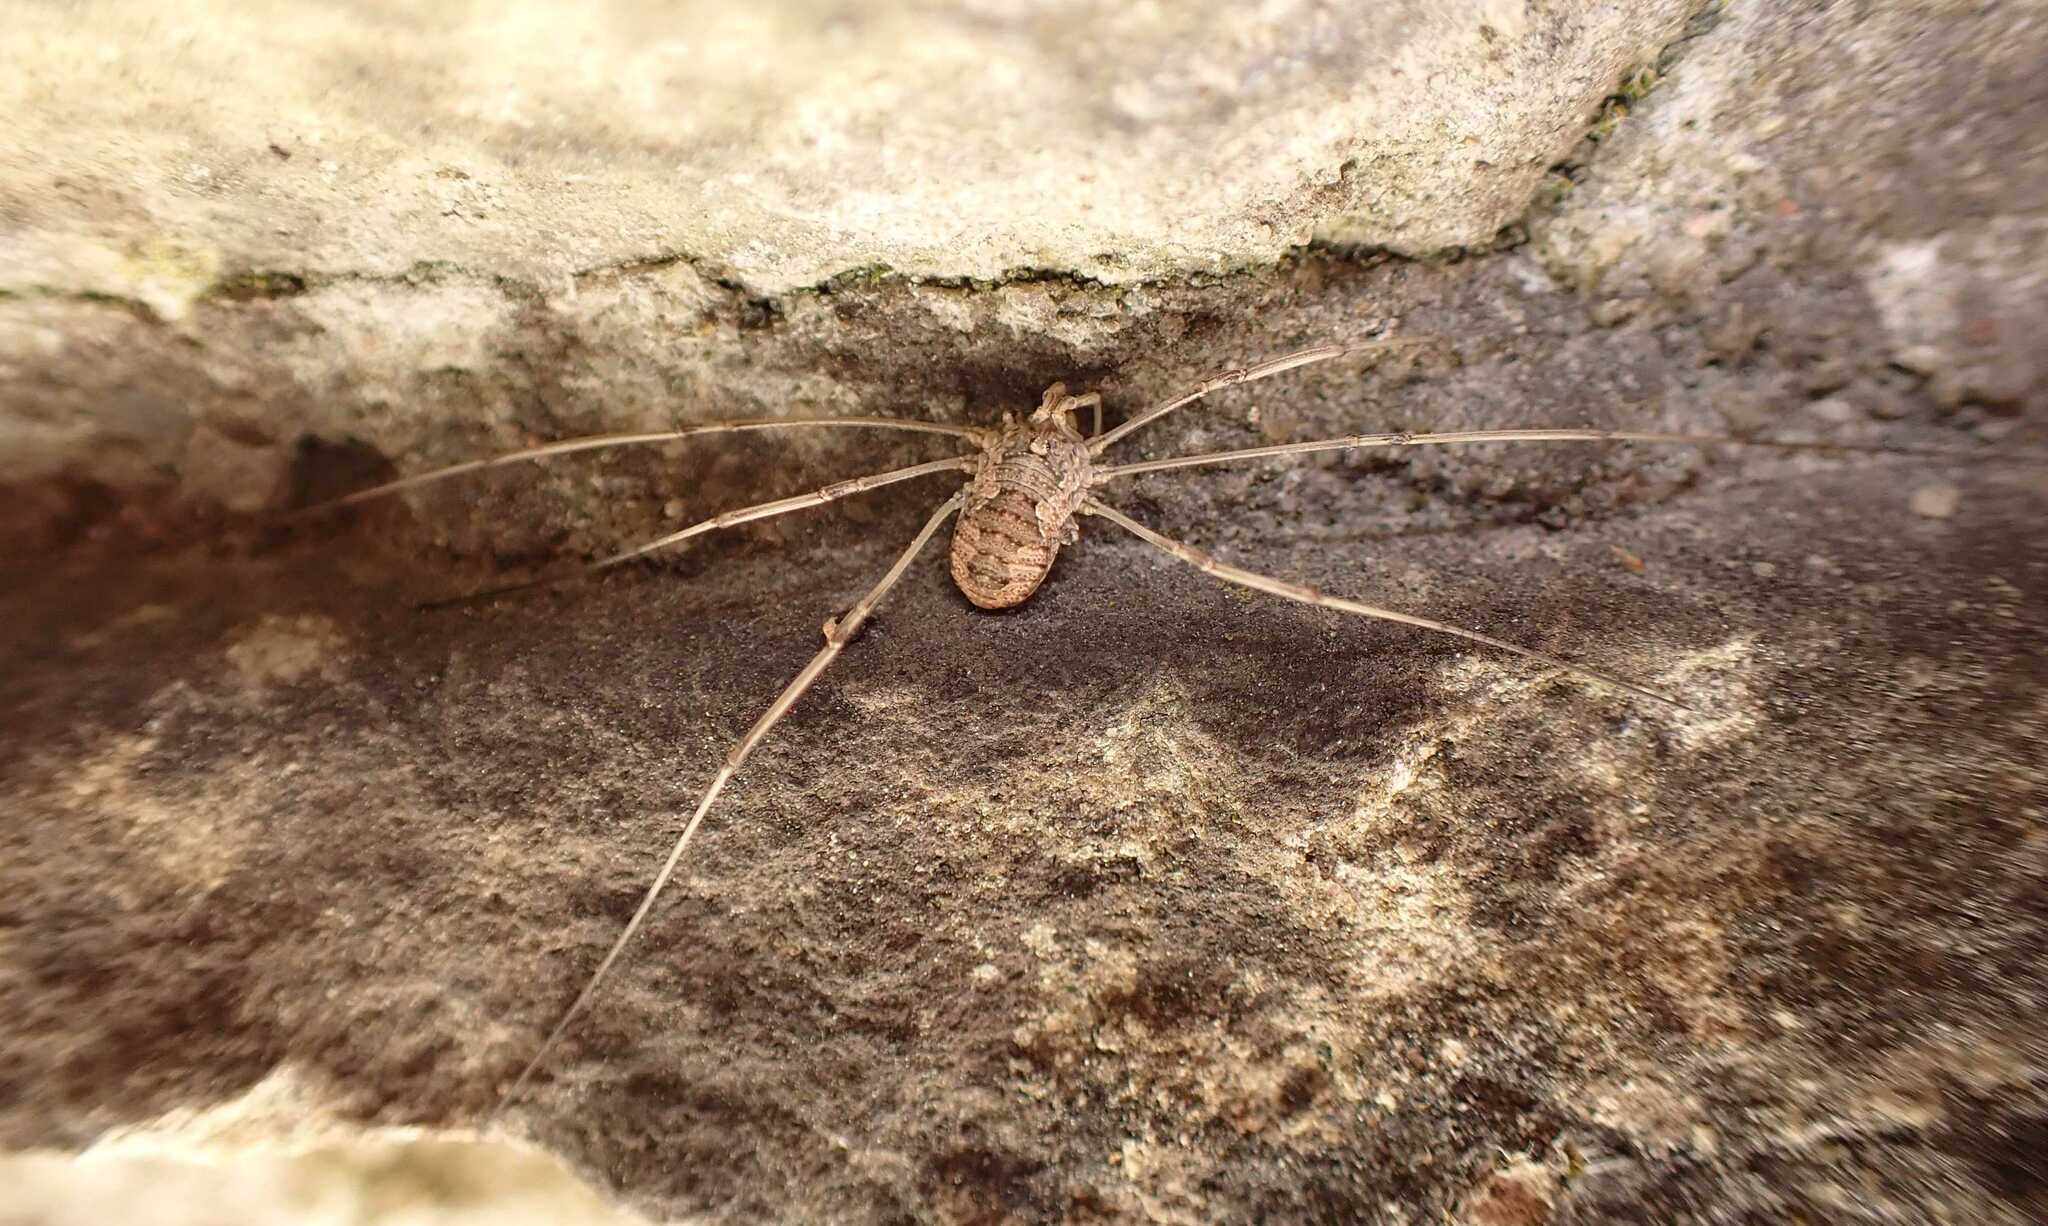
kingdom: Animalia
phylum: Arthropoda
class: Arachnida
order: Opiliones
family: Phalangiidae
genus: Phalangium
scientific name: Phalangium opilio
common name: Daddy longleg
